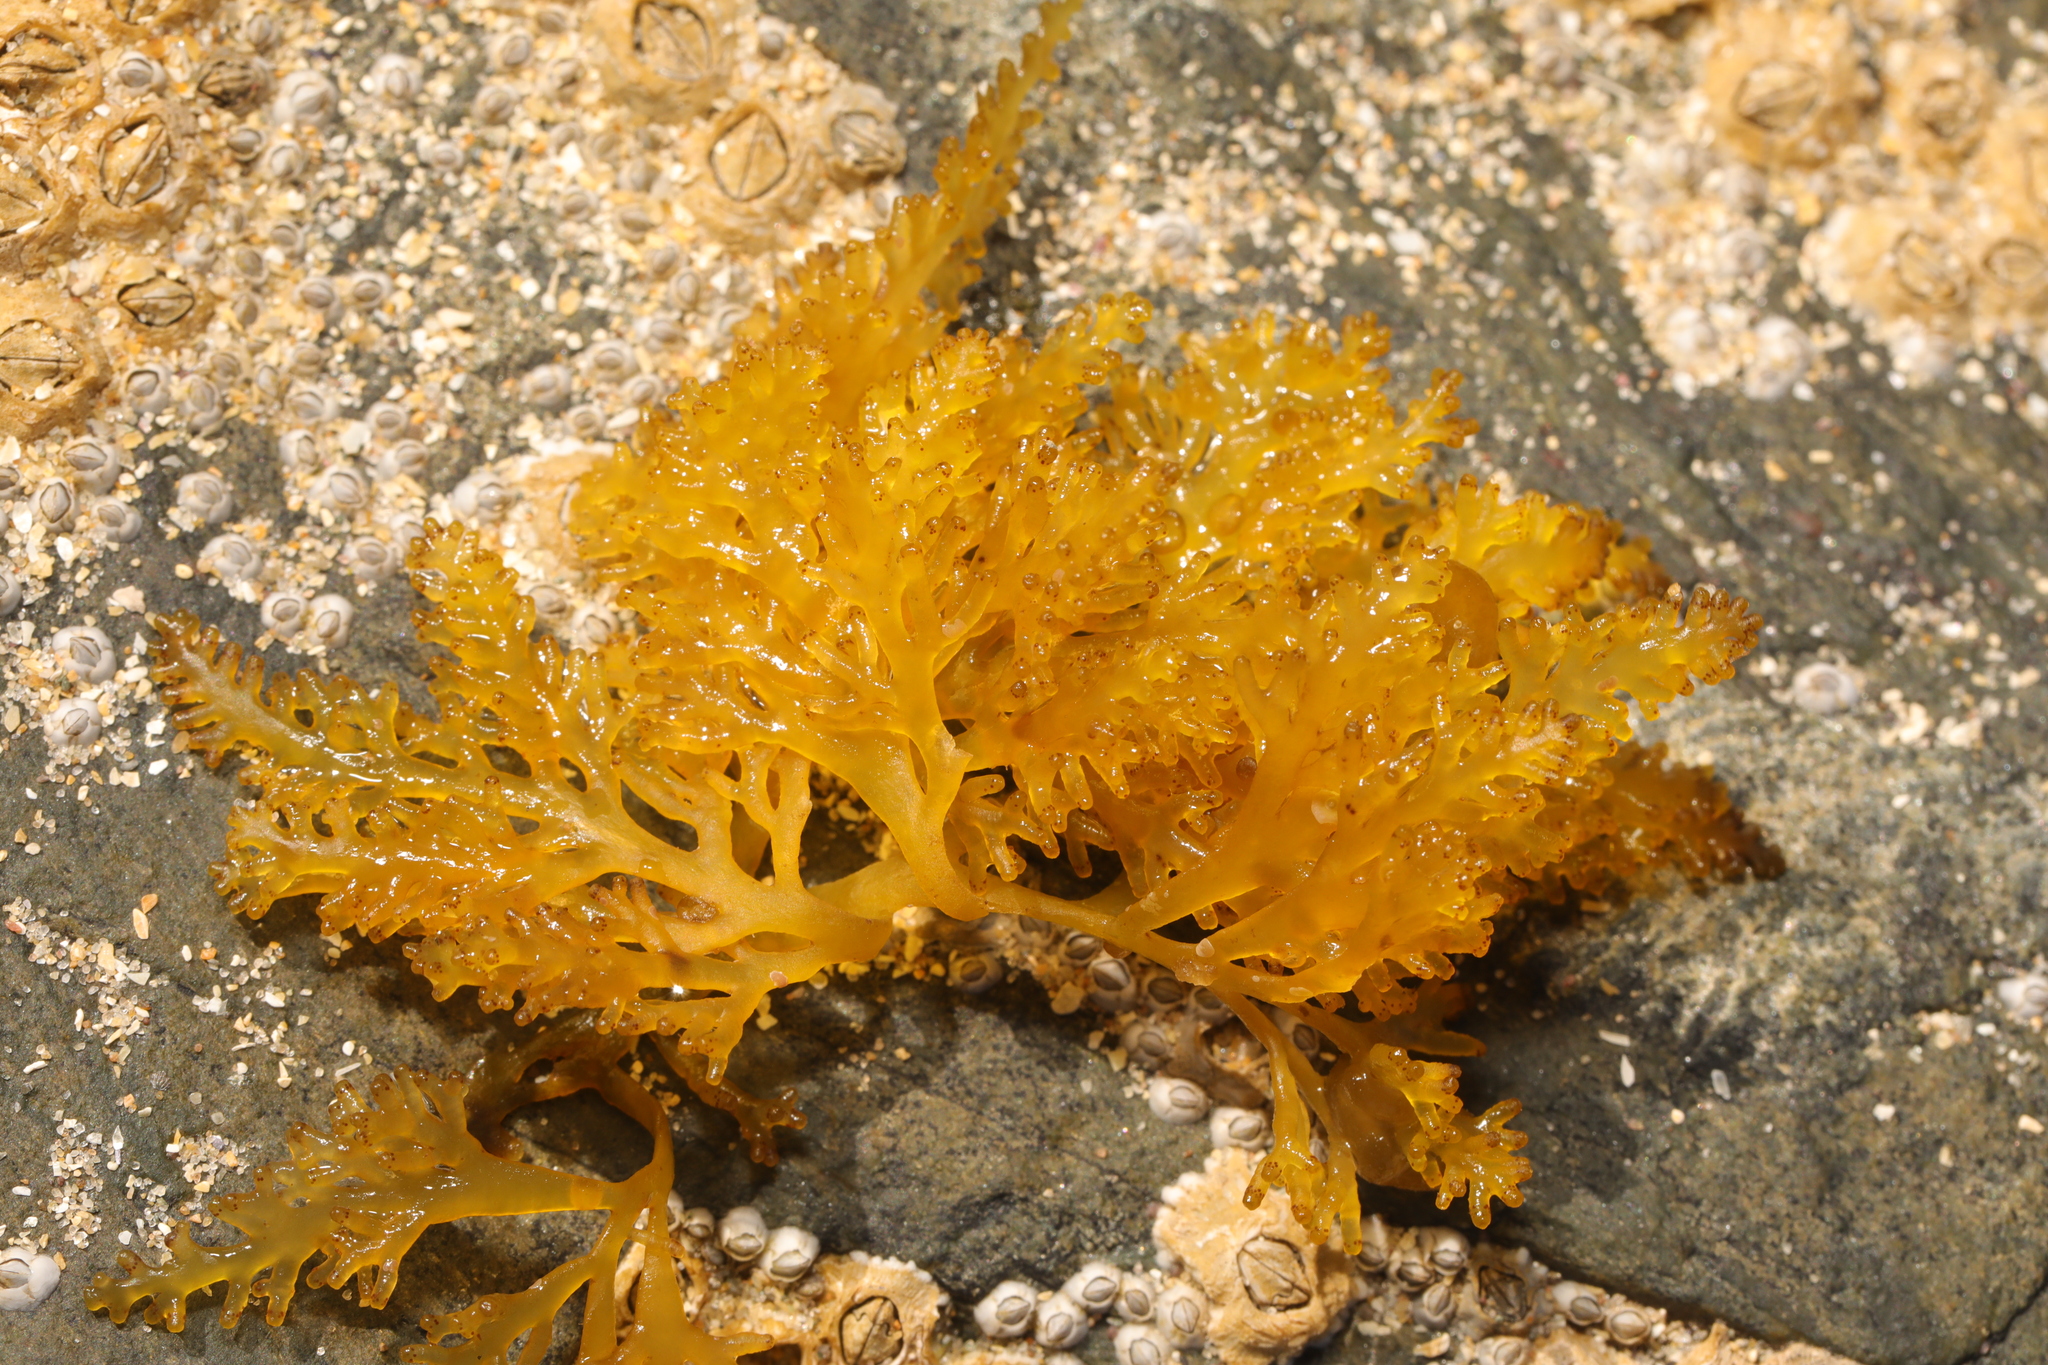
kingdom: Plantae
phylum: Rhodophyta
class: Florideophyceae
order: Ceramiales
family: Rhodomelaceae
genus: Laurencia
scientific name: Laurencia Osmundea pinnatifida
